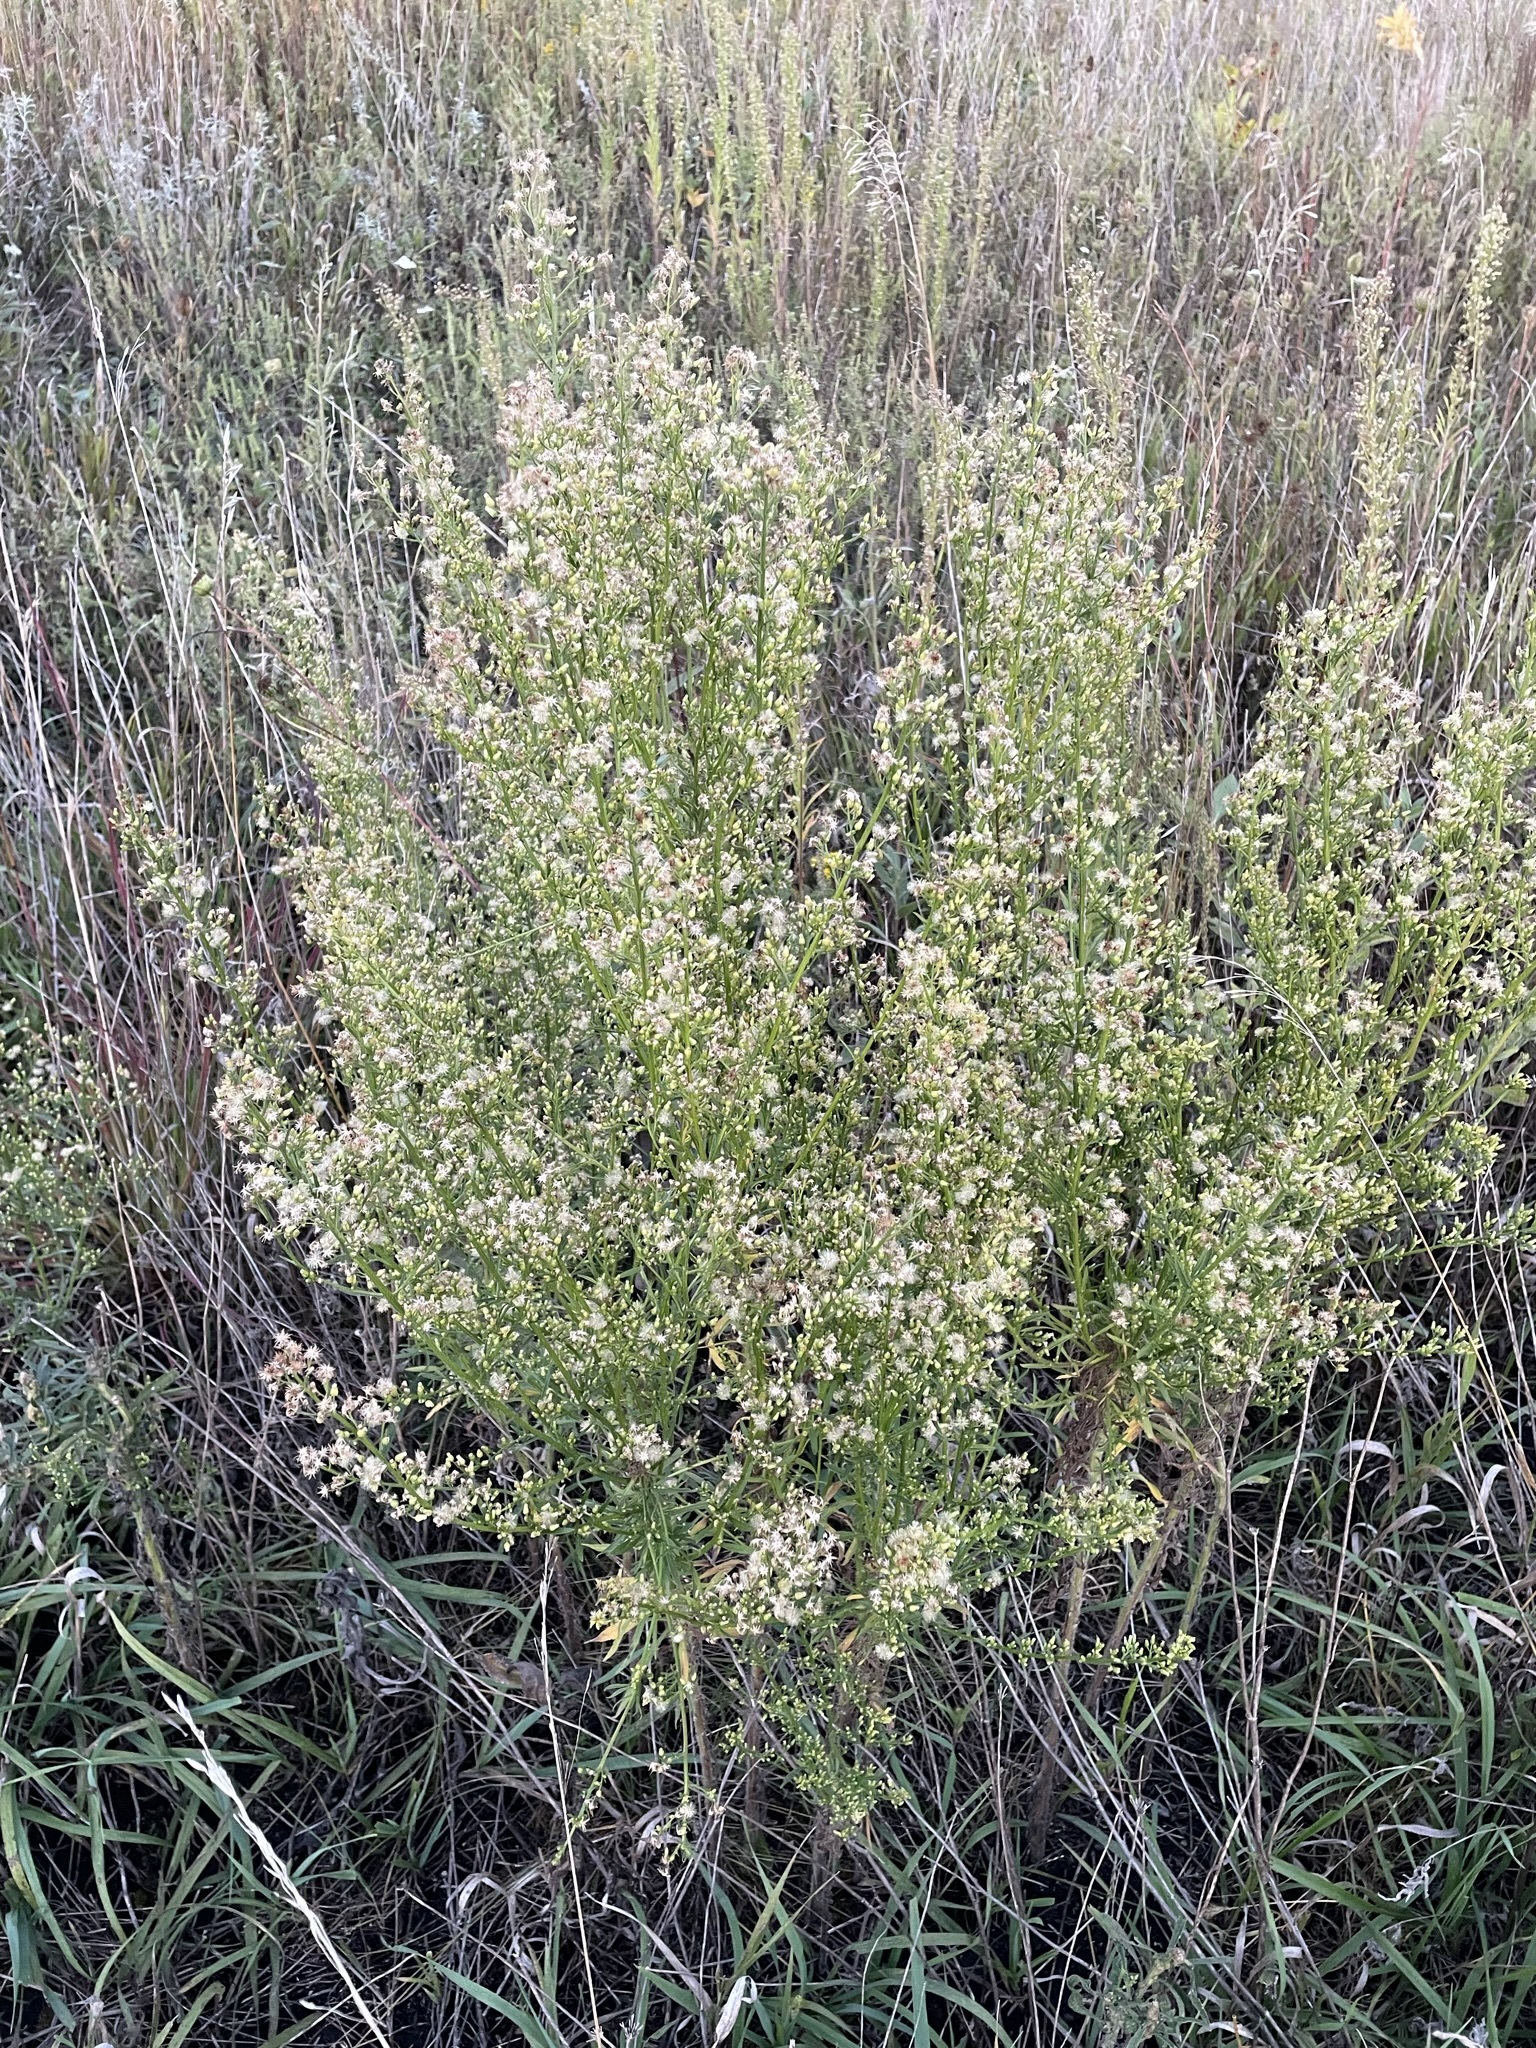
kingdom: Plantae
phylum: Tracheophyta
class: Magnoliopsida
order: Asterales
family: Asteraceae
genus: Erigeron
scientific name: Erigeron canadensis
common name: Canadian fleabane
